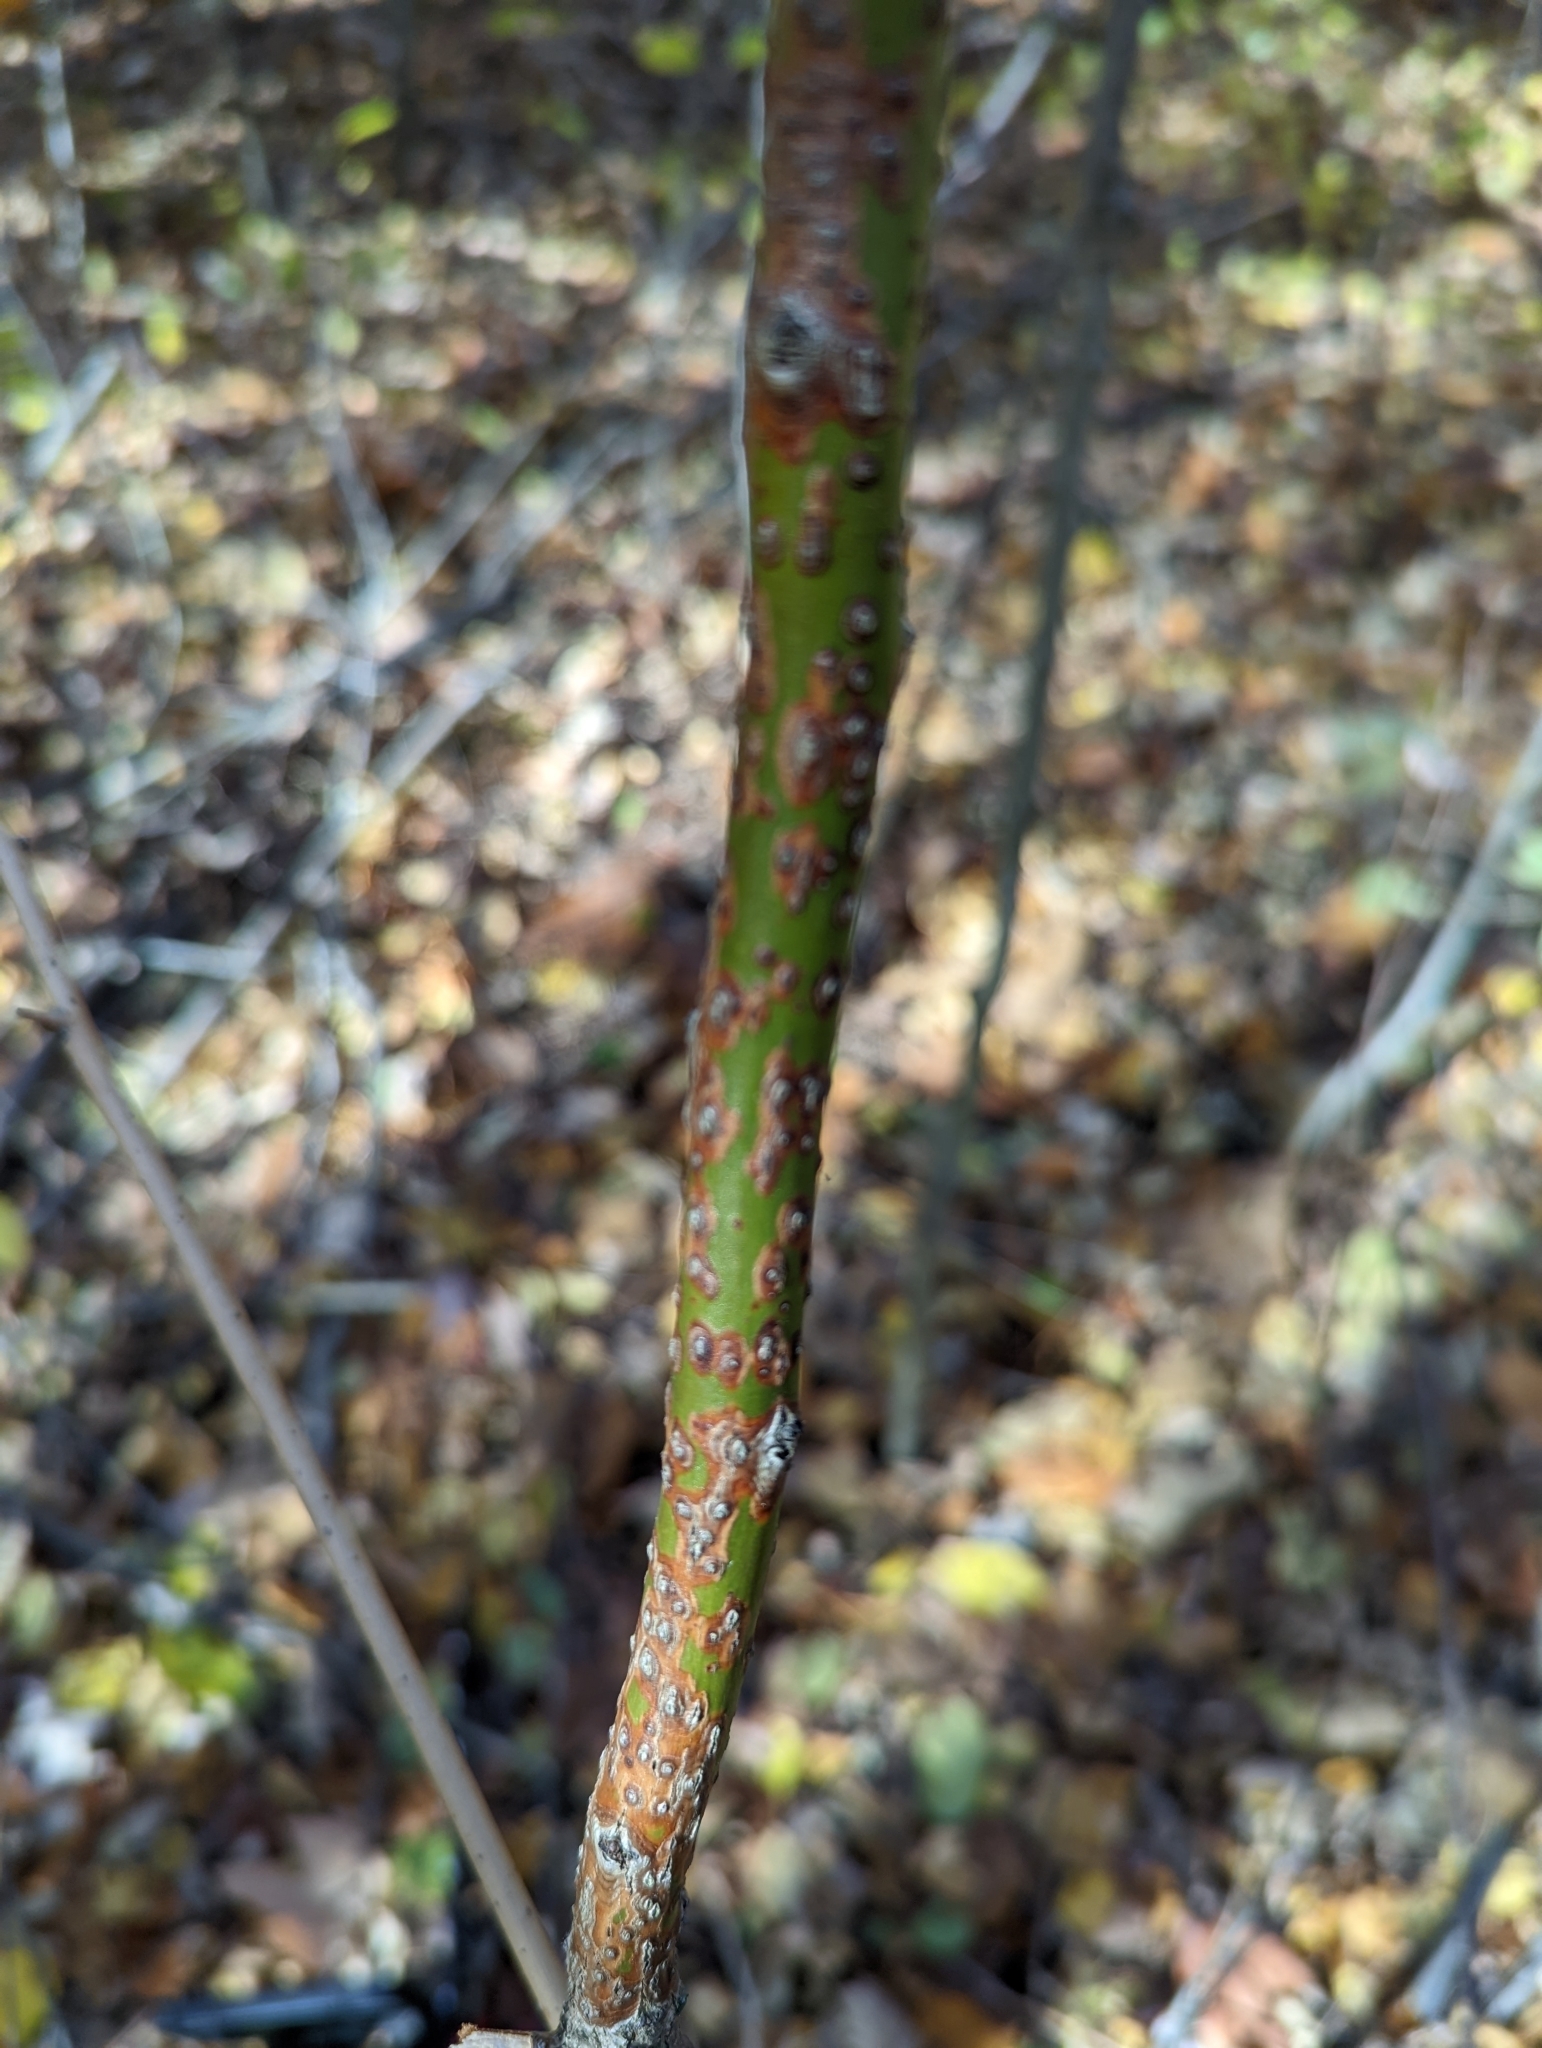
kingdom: Plantae
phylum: Tracheophyta
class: Magnoliopsida
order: Laurales
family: Lauraceae
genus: Sassafras
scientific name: Sassafras albidum
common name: Sassafras
